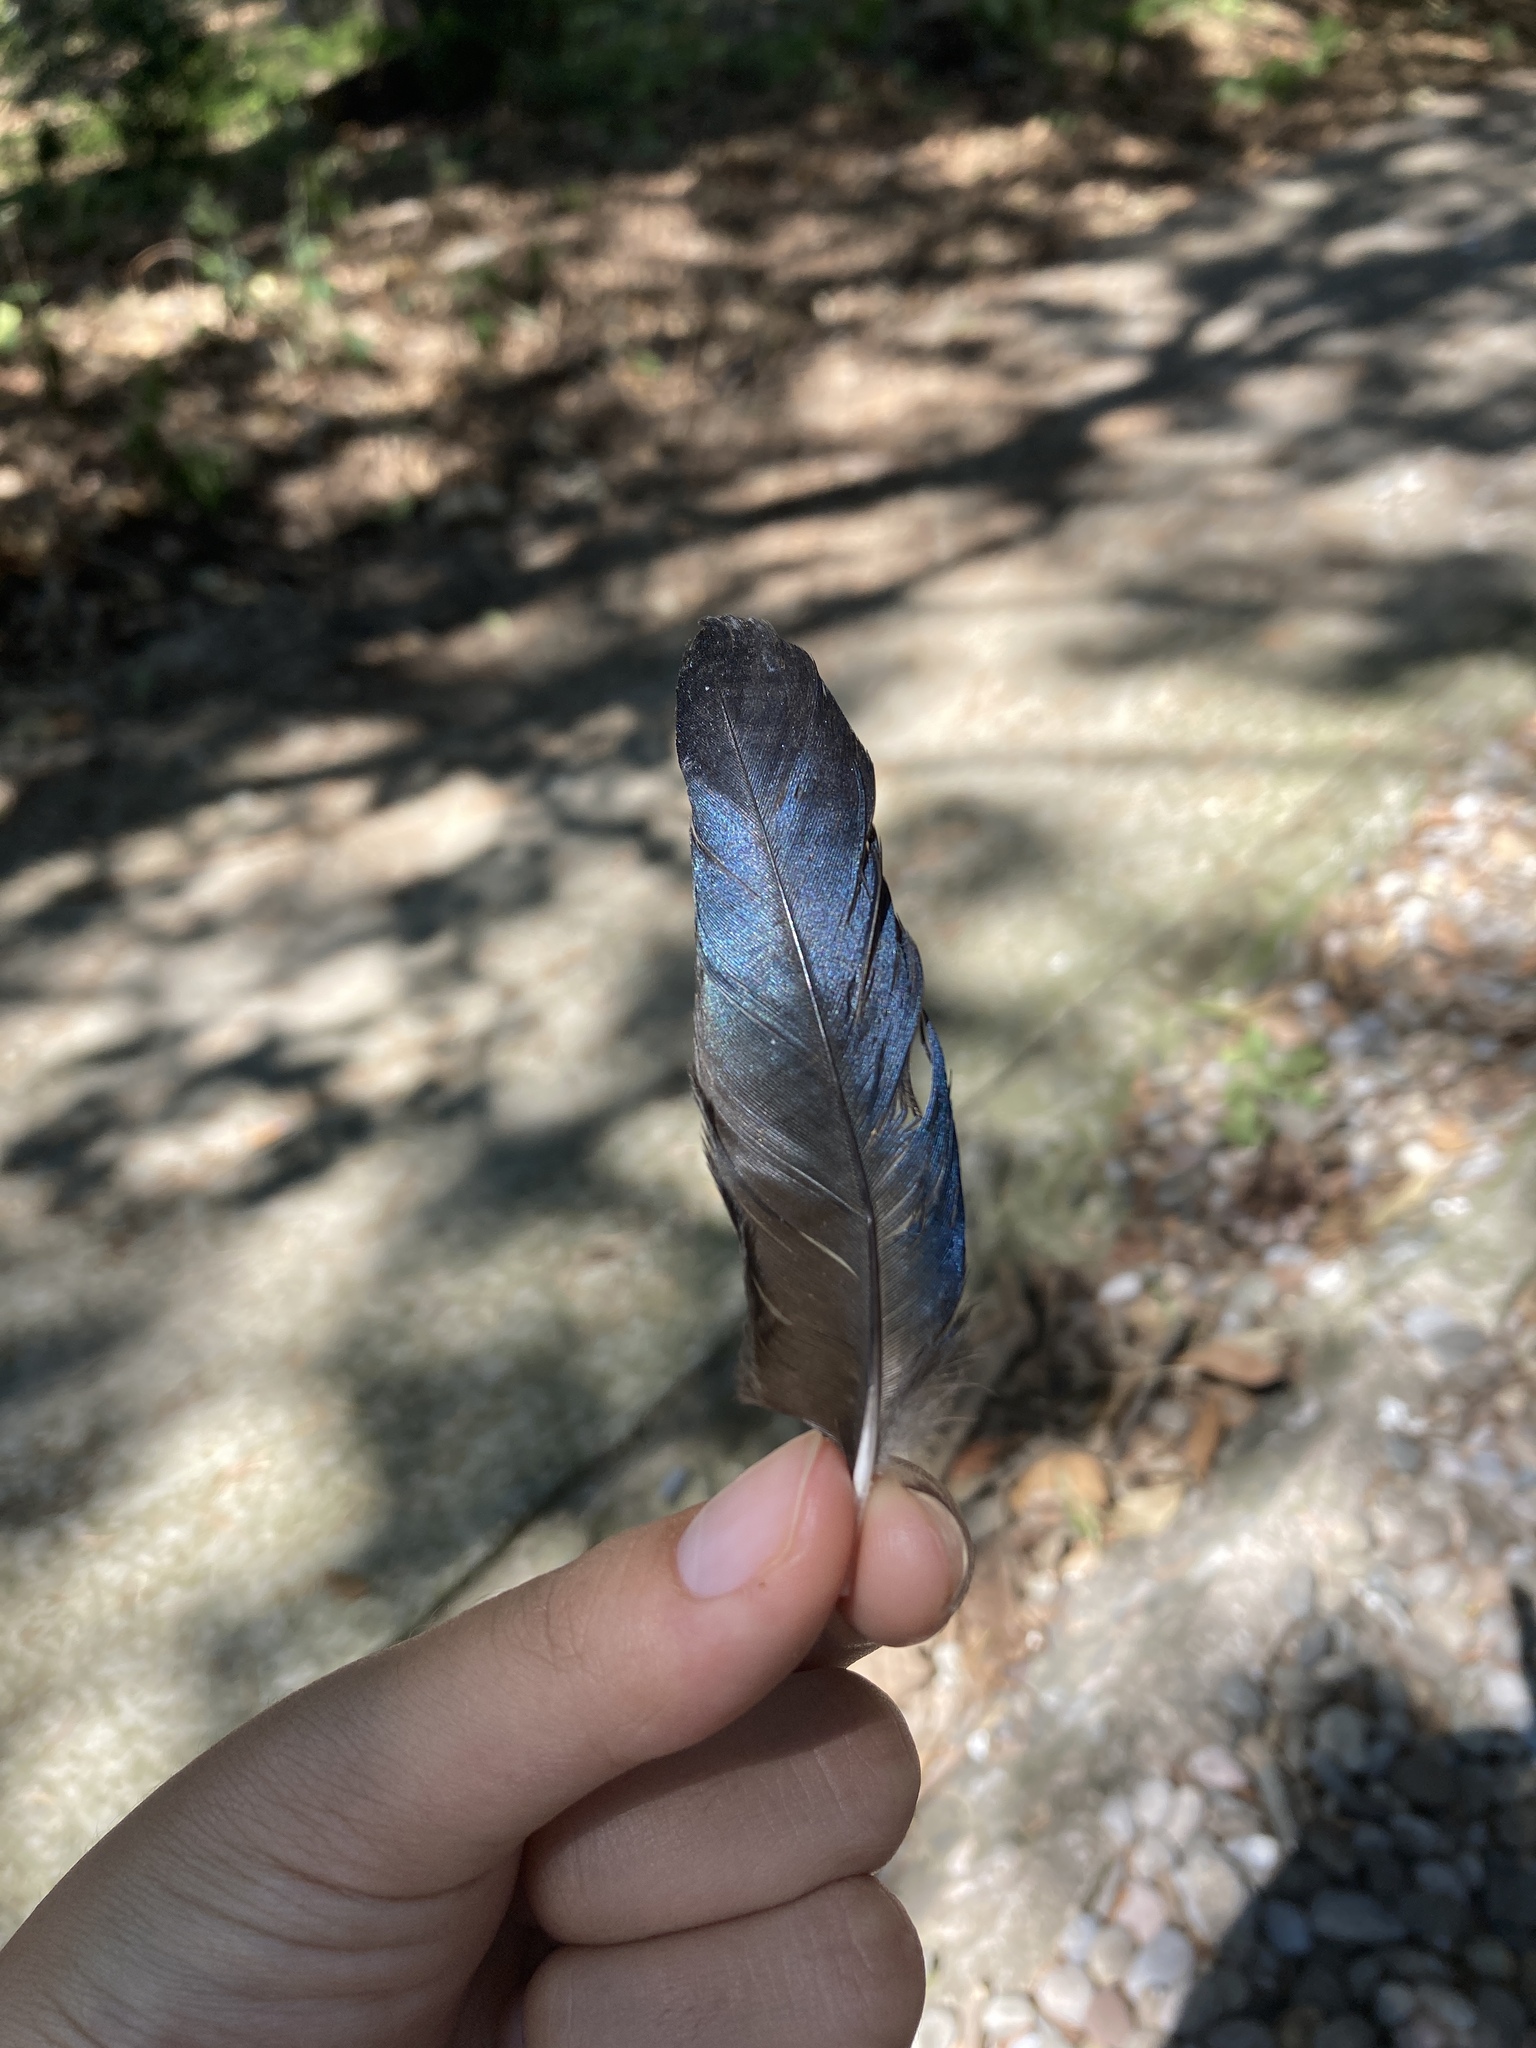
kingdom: Animalia
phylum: Chordata
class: Aves
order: Passeriformes
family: Corvidae
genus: Pica
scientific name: Pica pica
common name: Eurasian magpie
